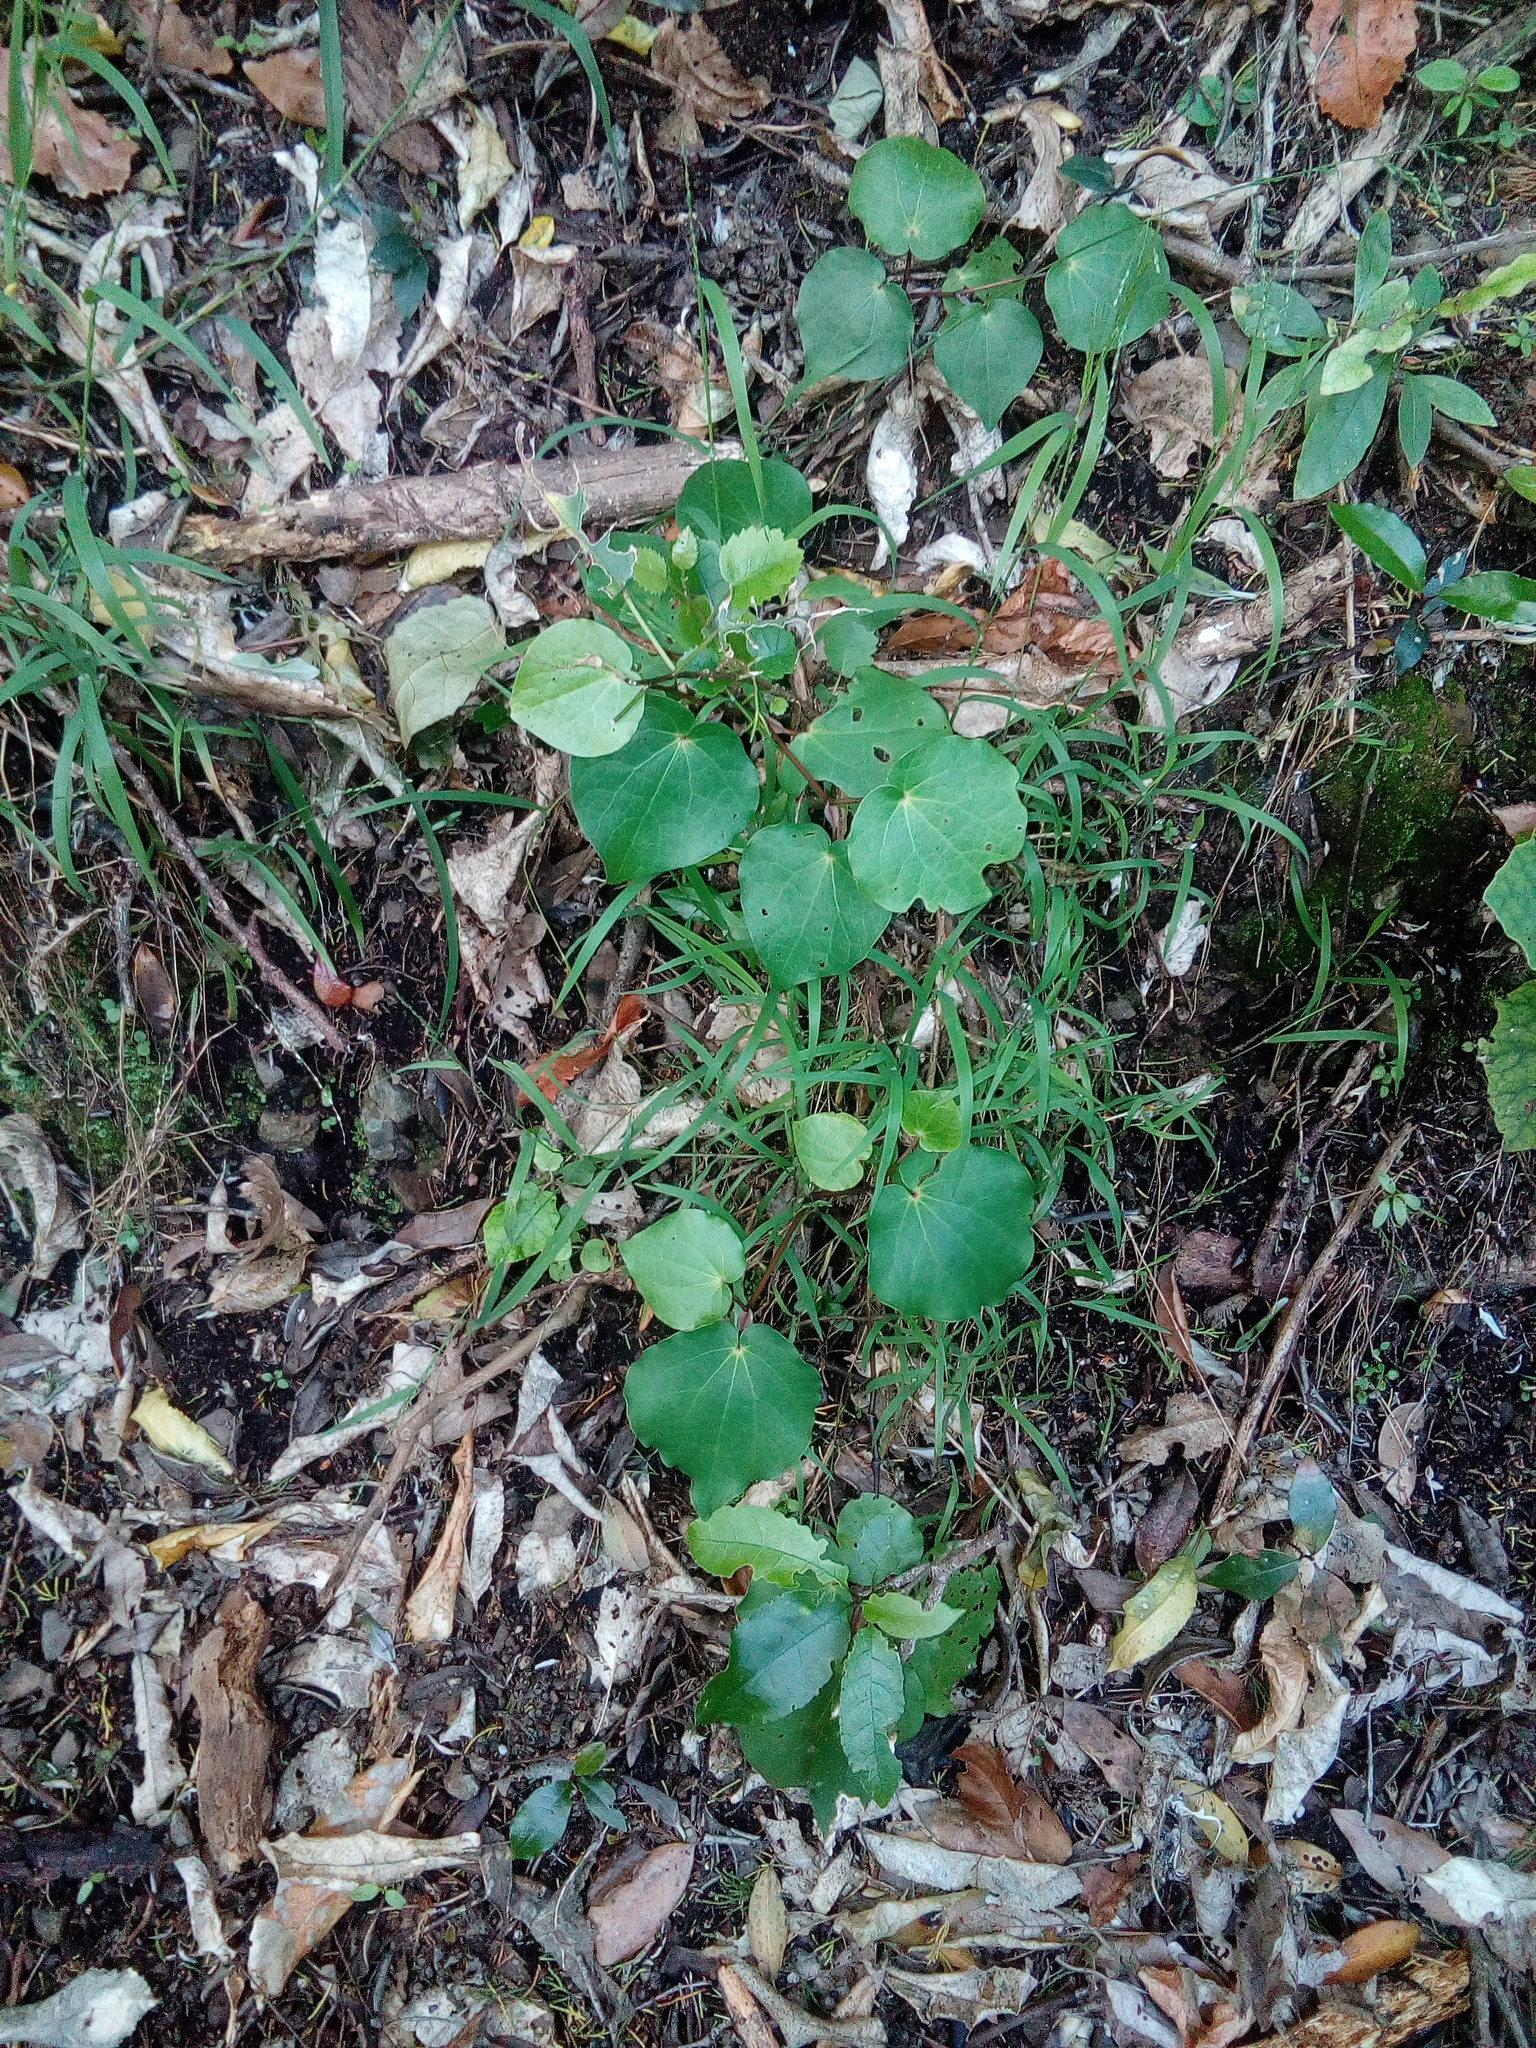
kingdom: Plantae
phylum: Tracheophyta
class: Magnoliopsida
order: Piperales
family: Piperaceae
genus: Macropiper
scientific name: Macropiper excelsum
